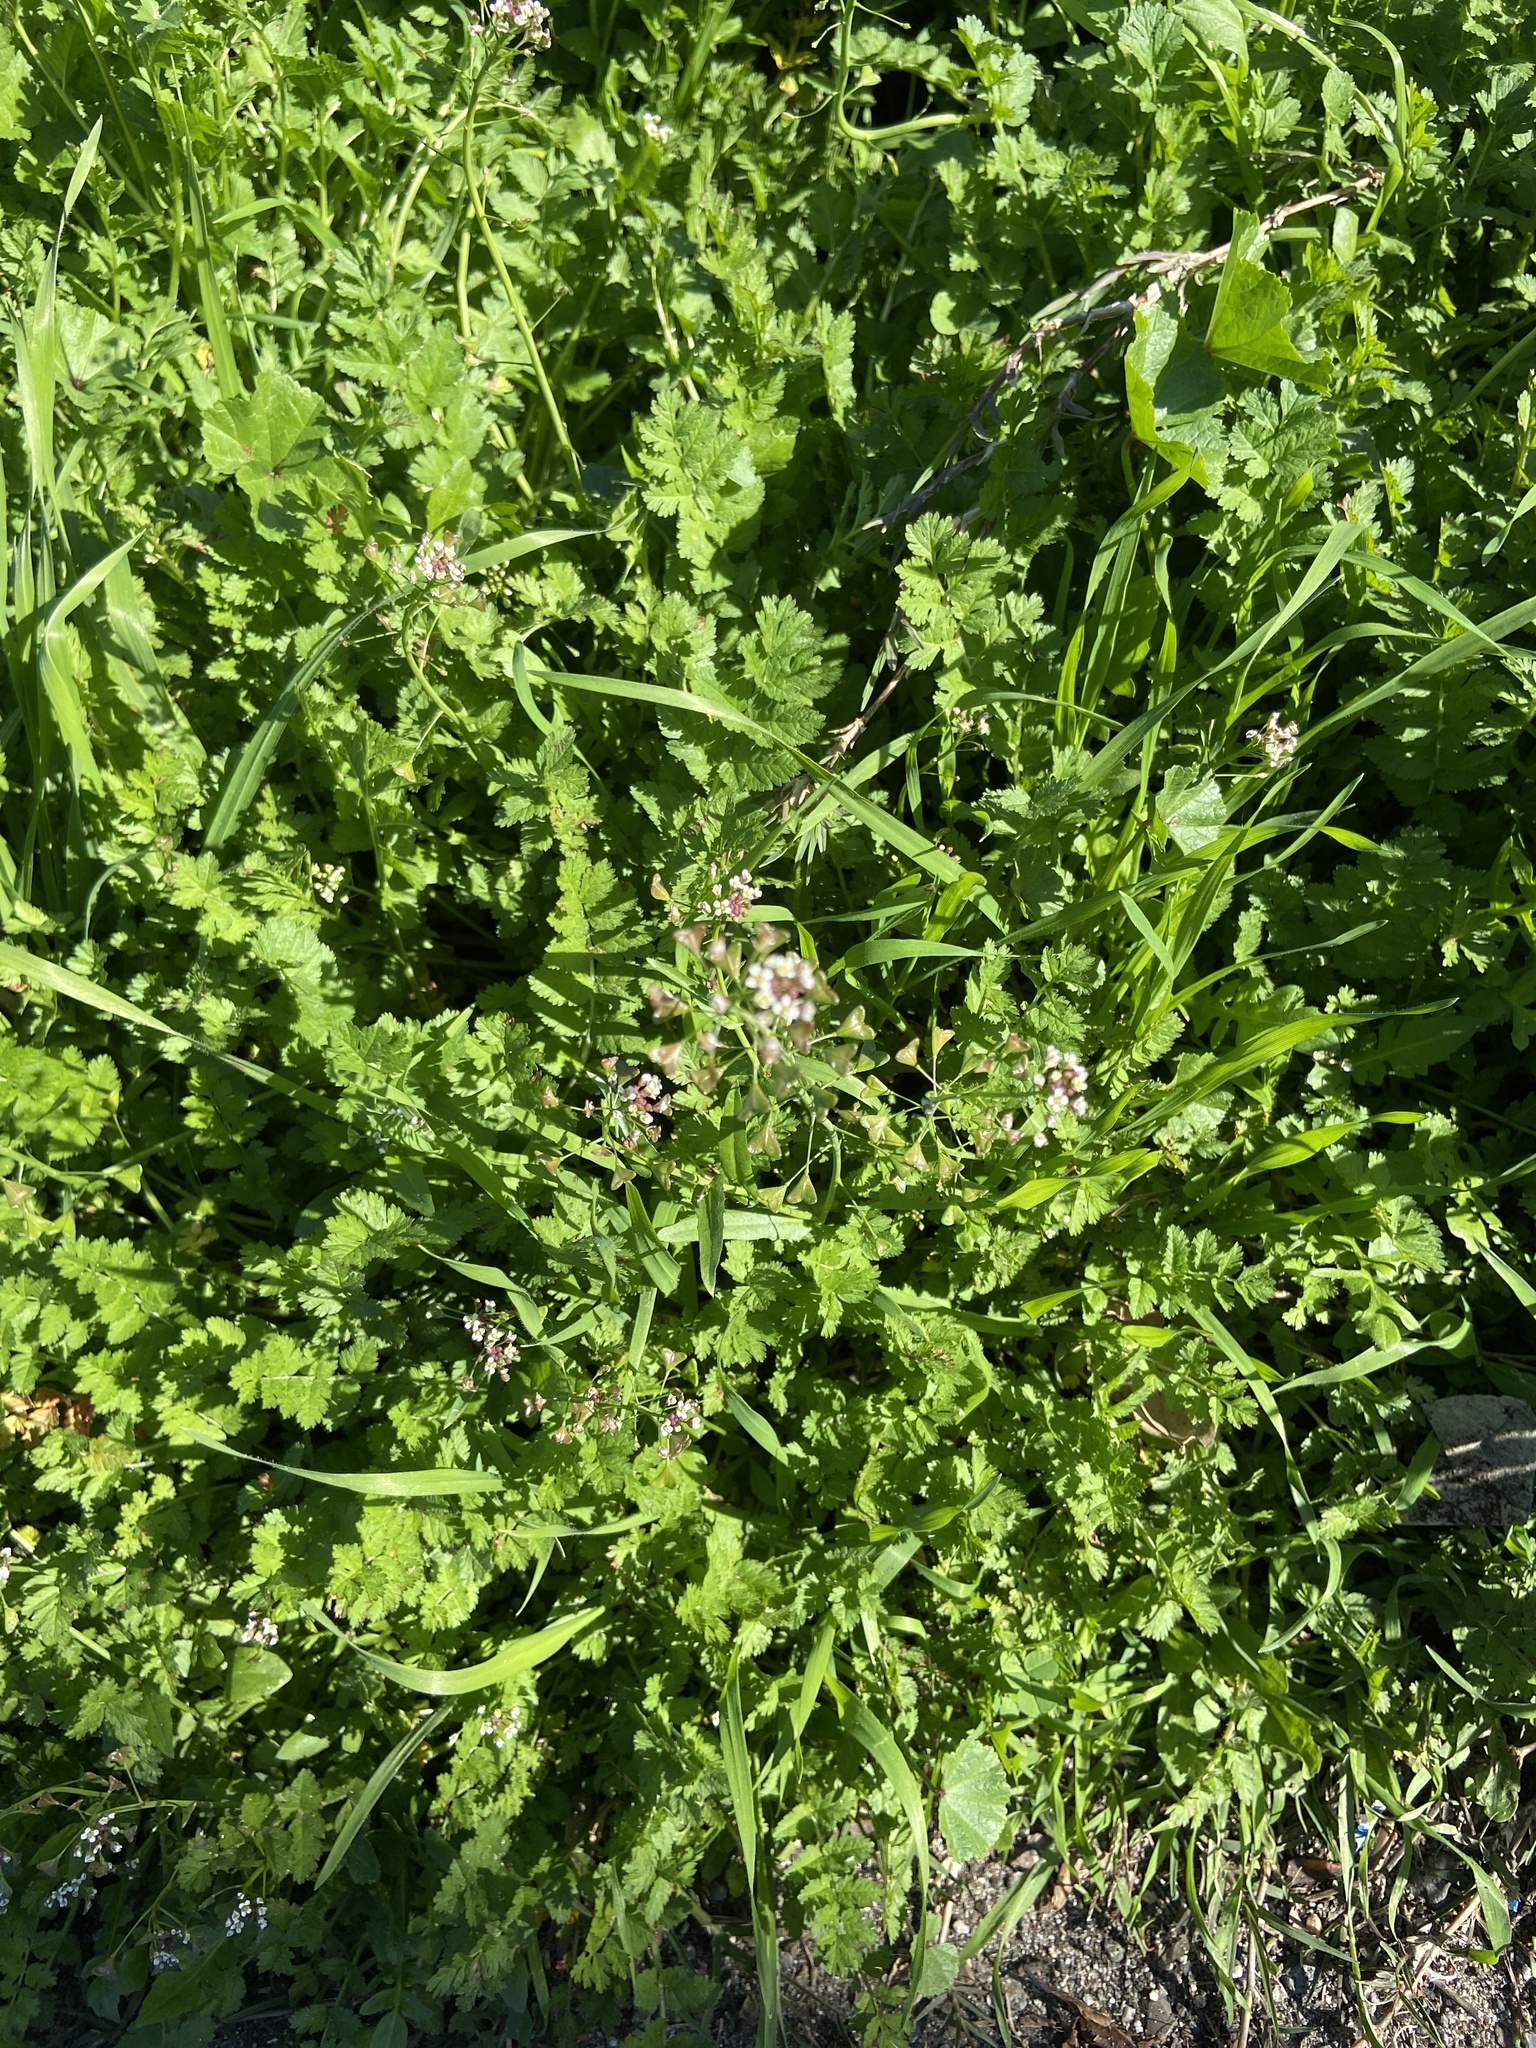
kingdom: Plantae
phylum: Tracheophyta
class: Magnoliopsida
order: Brassicales
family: Brassicaceae
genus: Capsella
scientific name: Capsella bursa-pastoris
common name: Shepherd's purse
